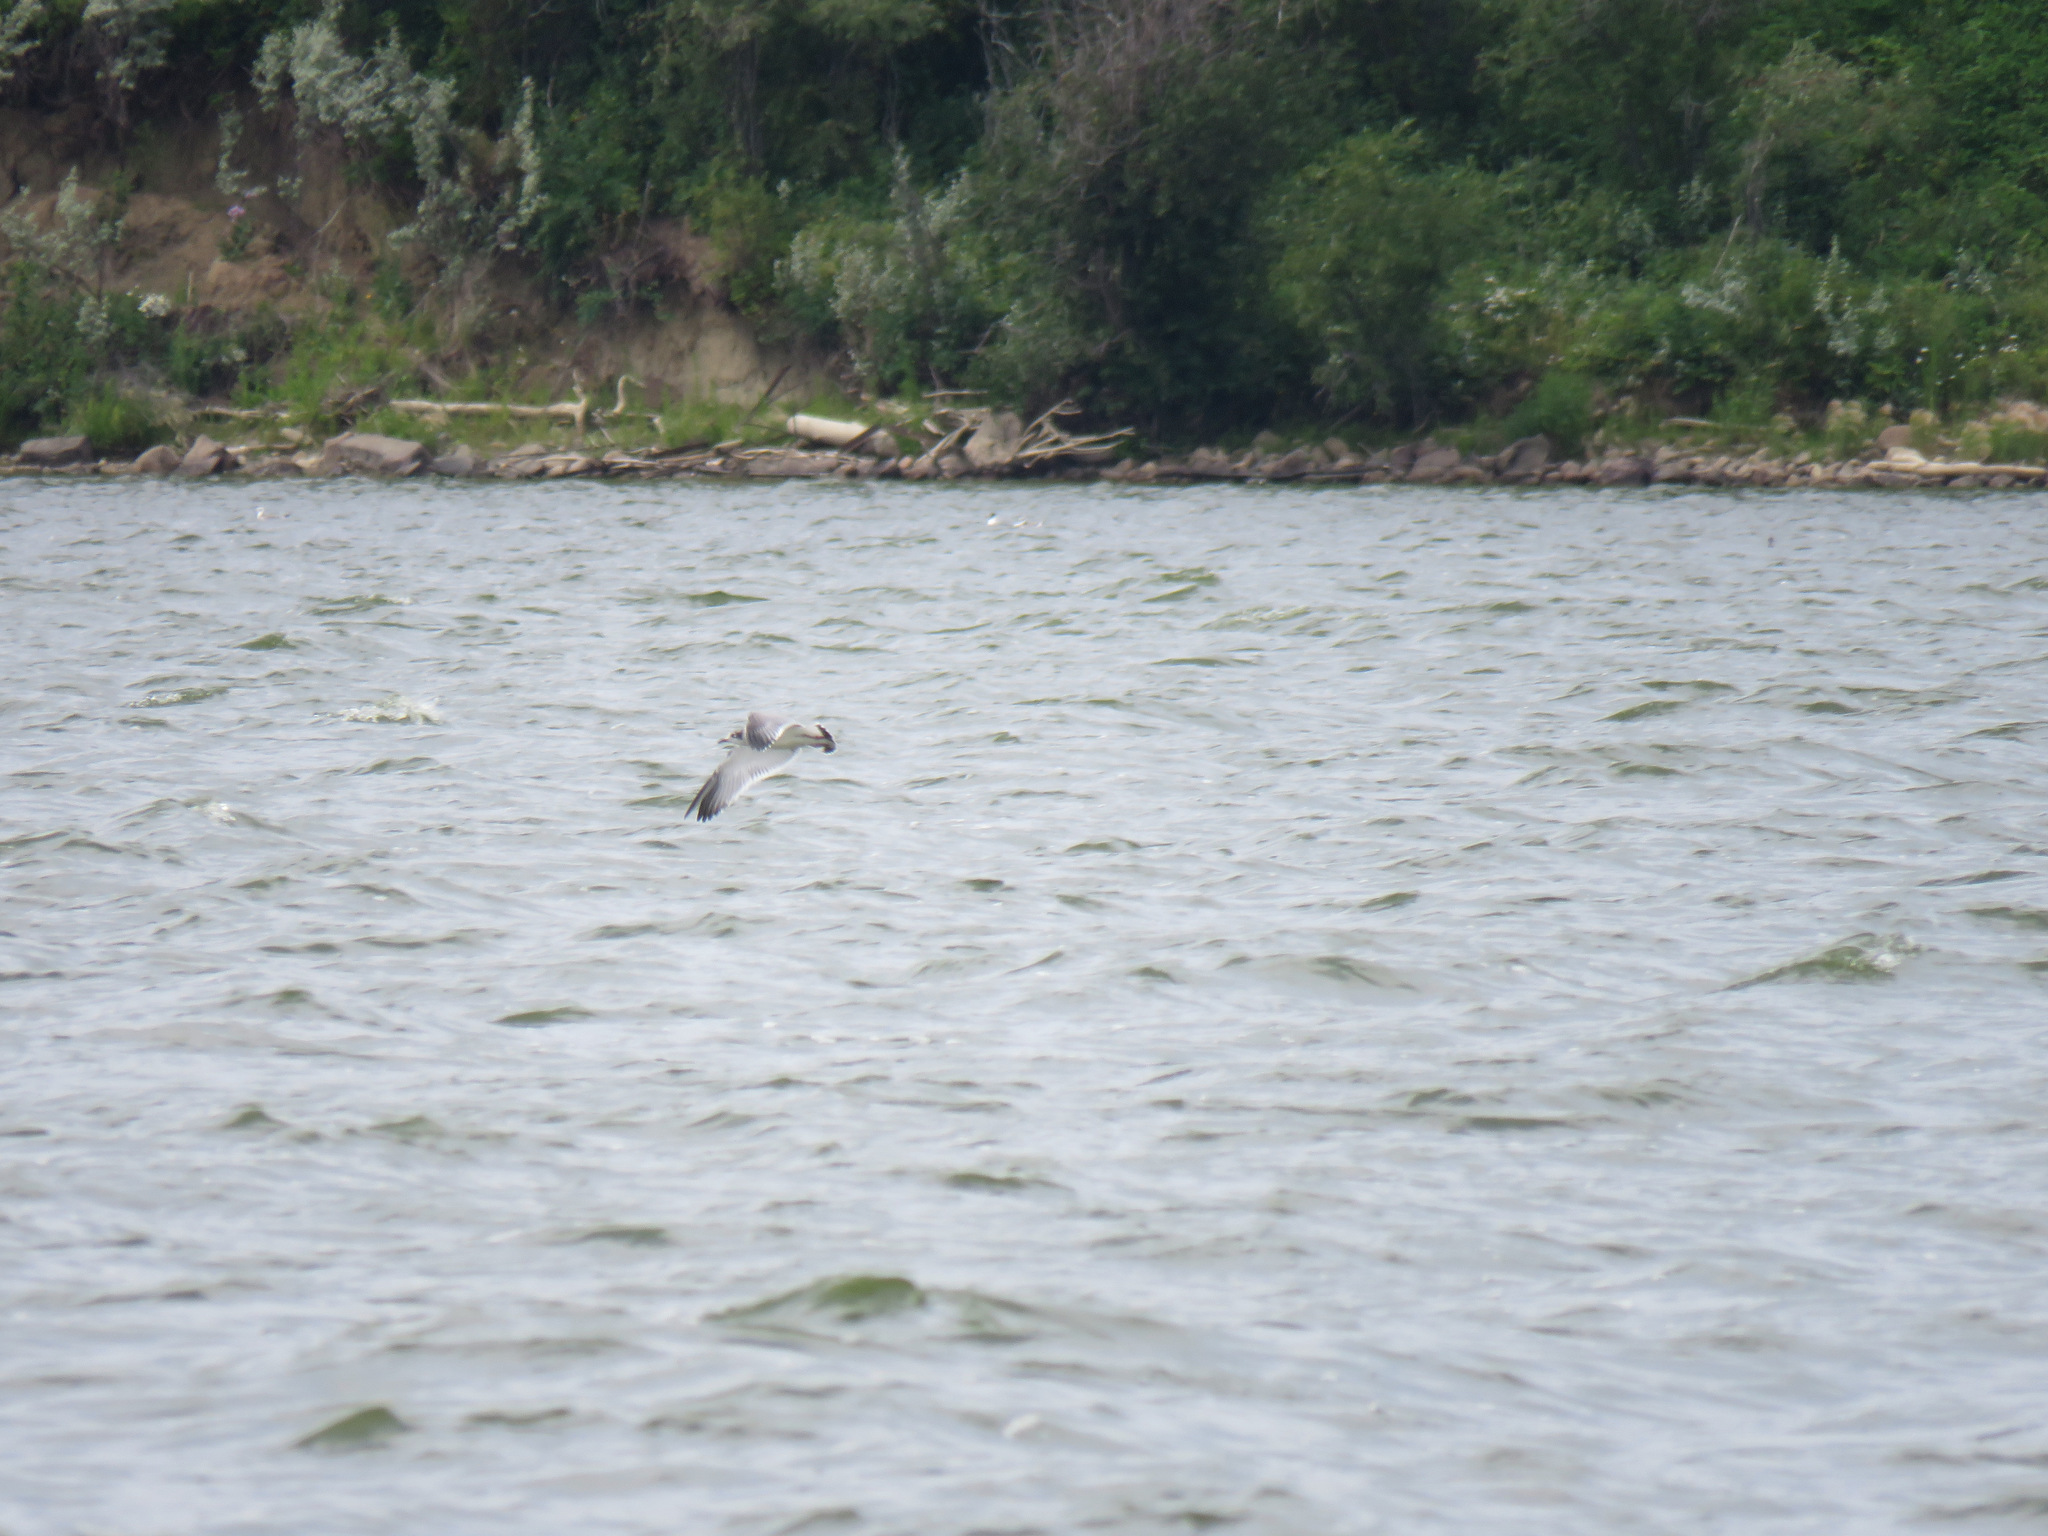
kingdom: Animalia
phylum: Chordata
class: Aves
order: Charadriiformes
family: Laridae
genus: Leucophaeus
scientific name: Leucophaeus pipixcan
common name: Franklin's gull
